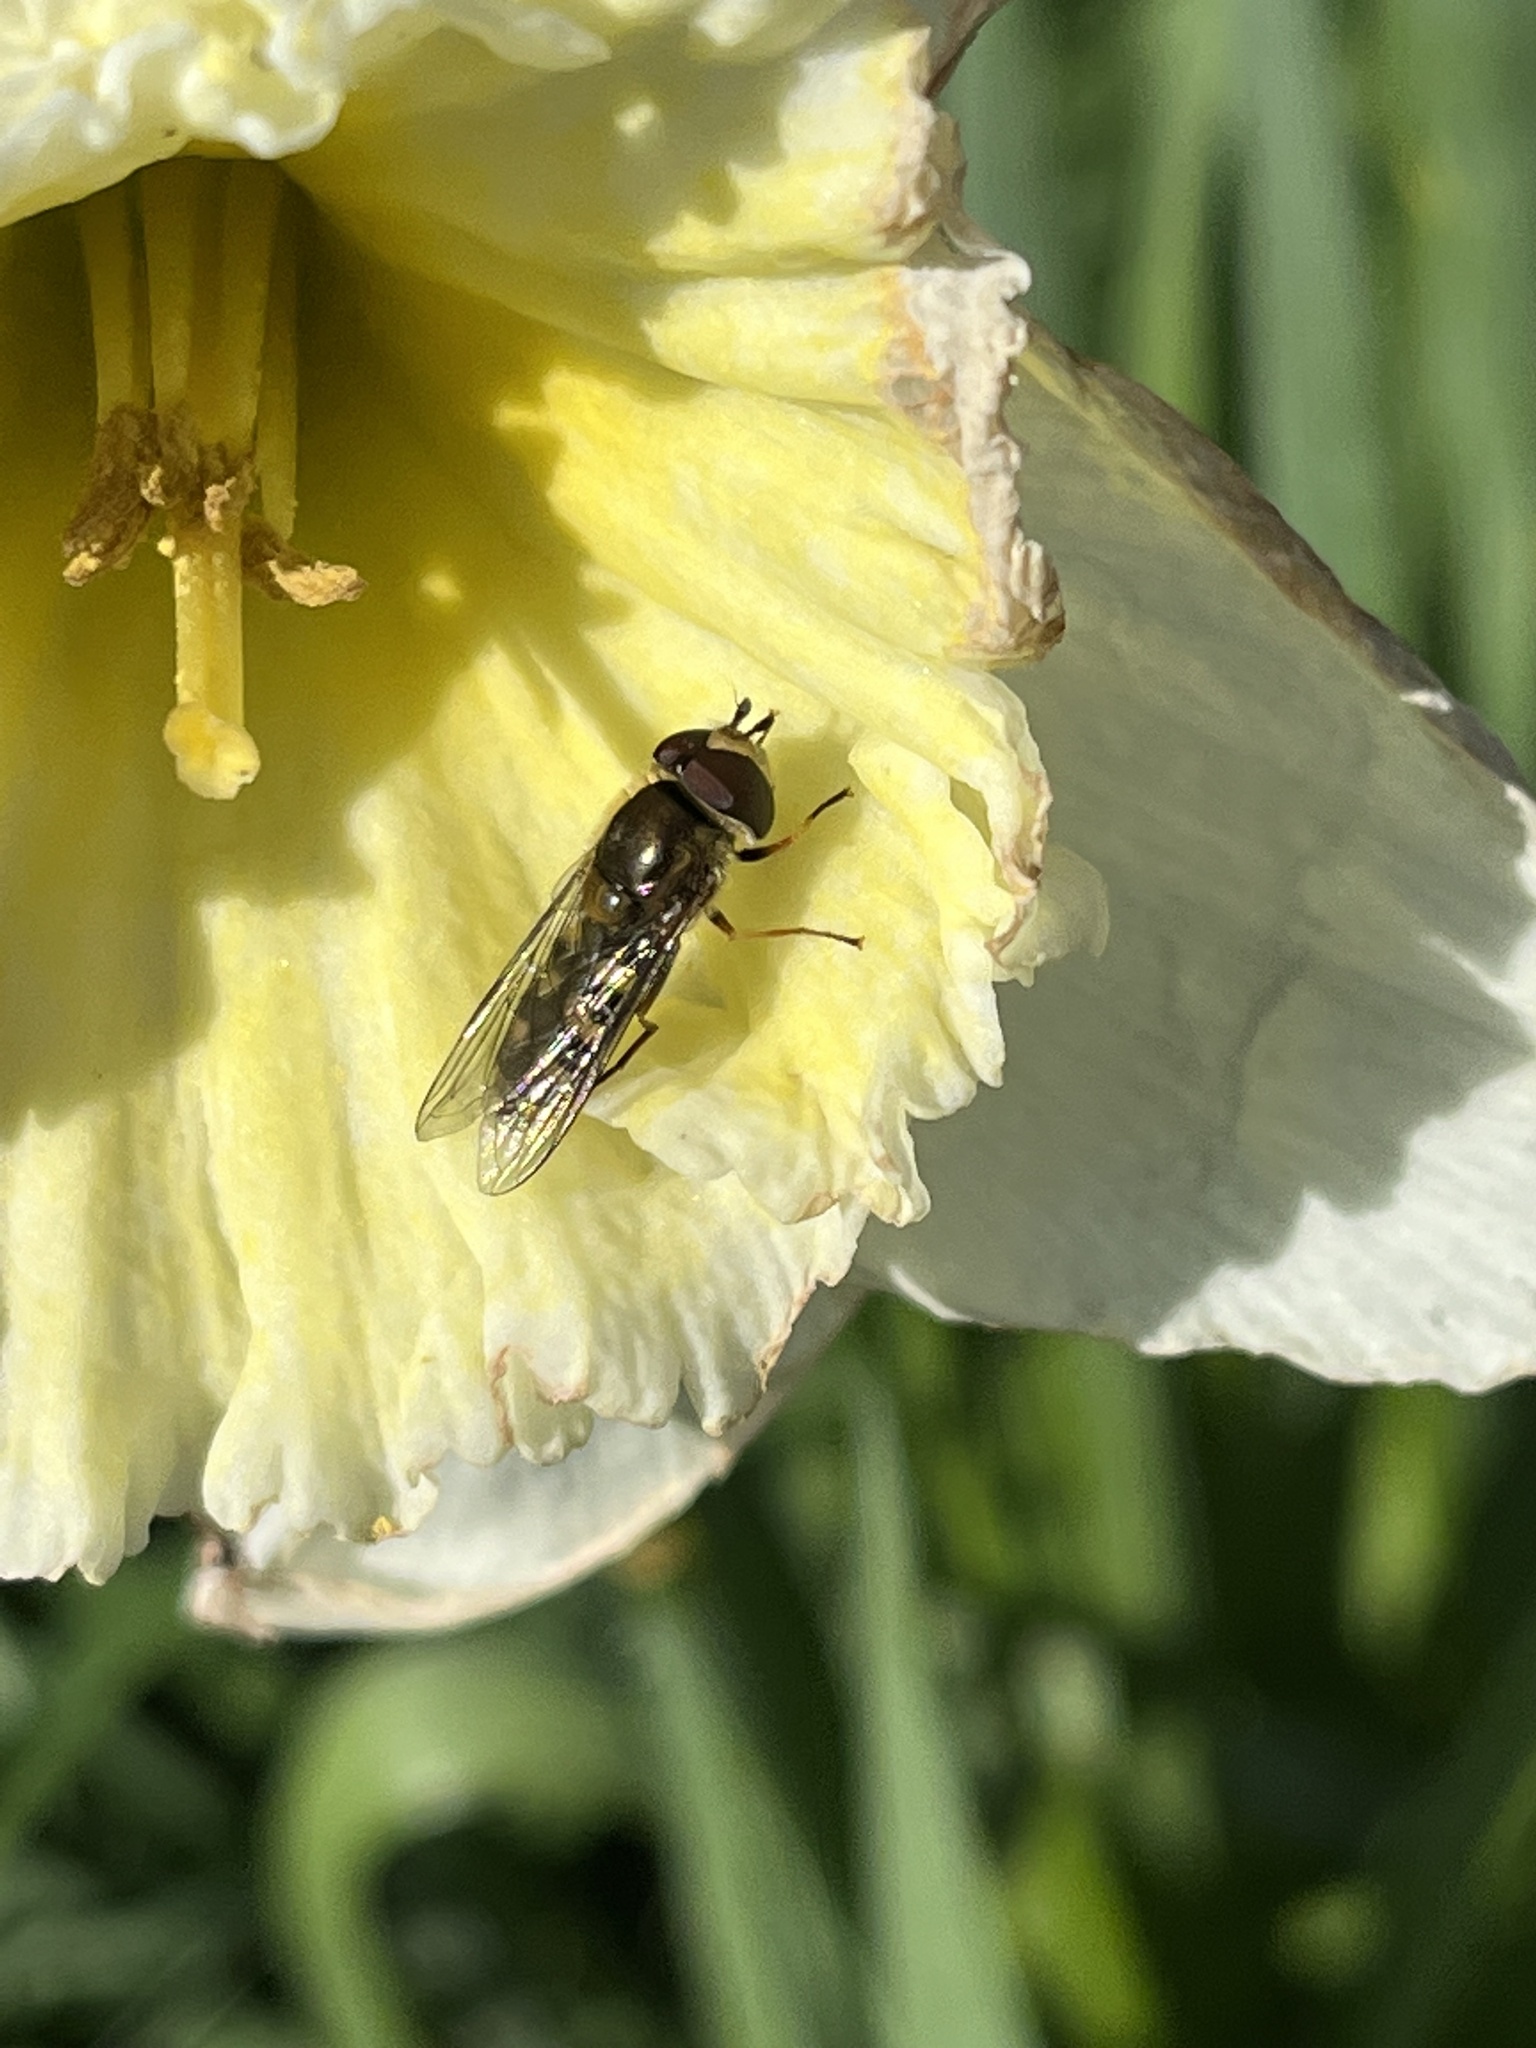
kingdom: Animalia
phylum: Arthropoda
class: Insecta
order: Diptera
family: Syrphidae
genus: Eupeodes
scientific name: Eupeodes
